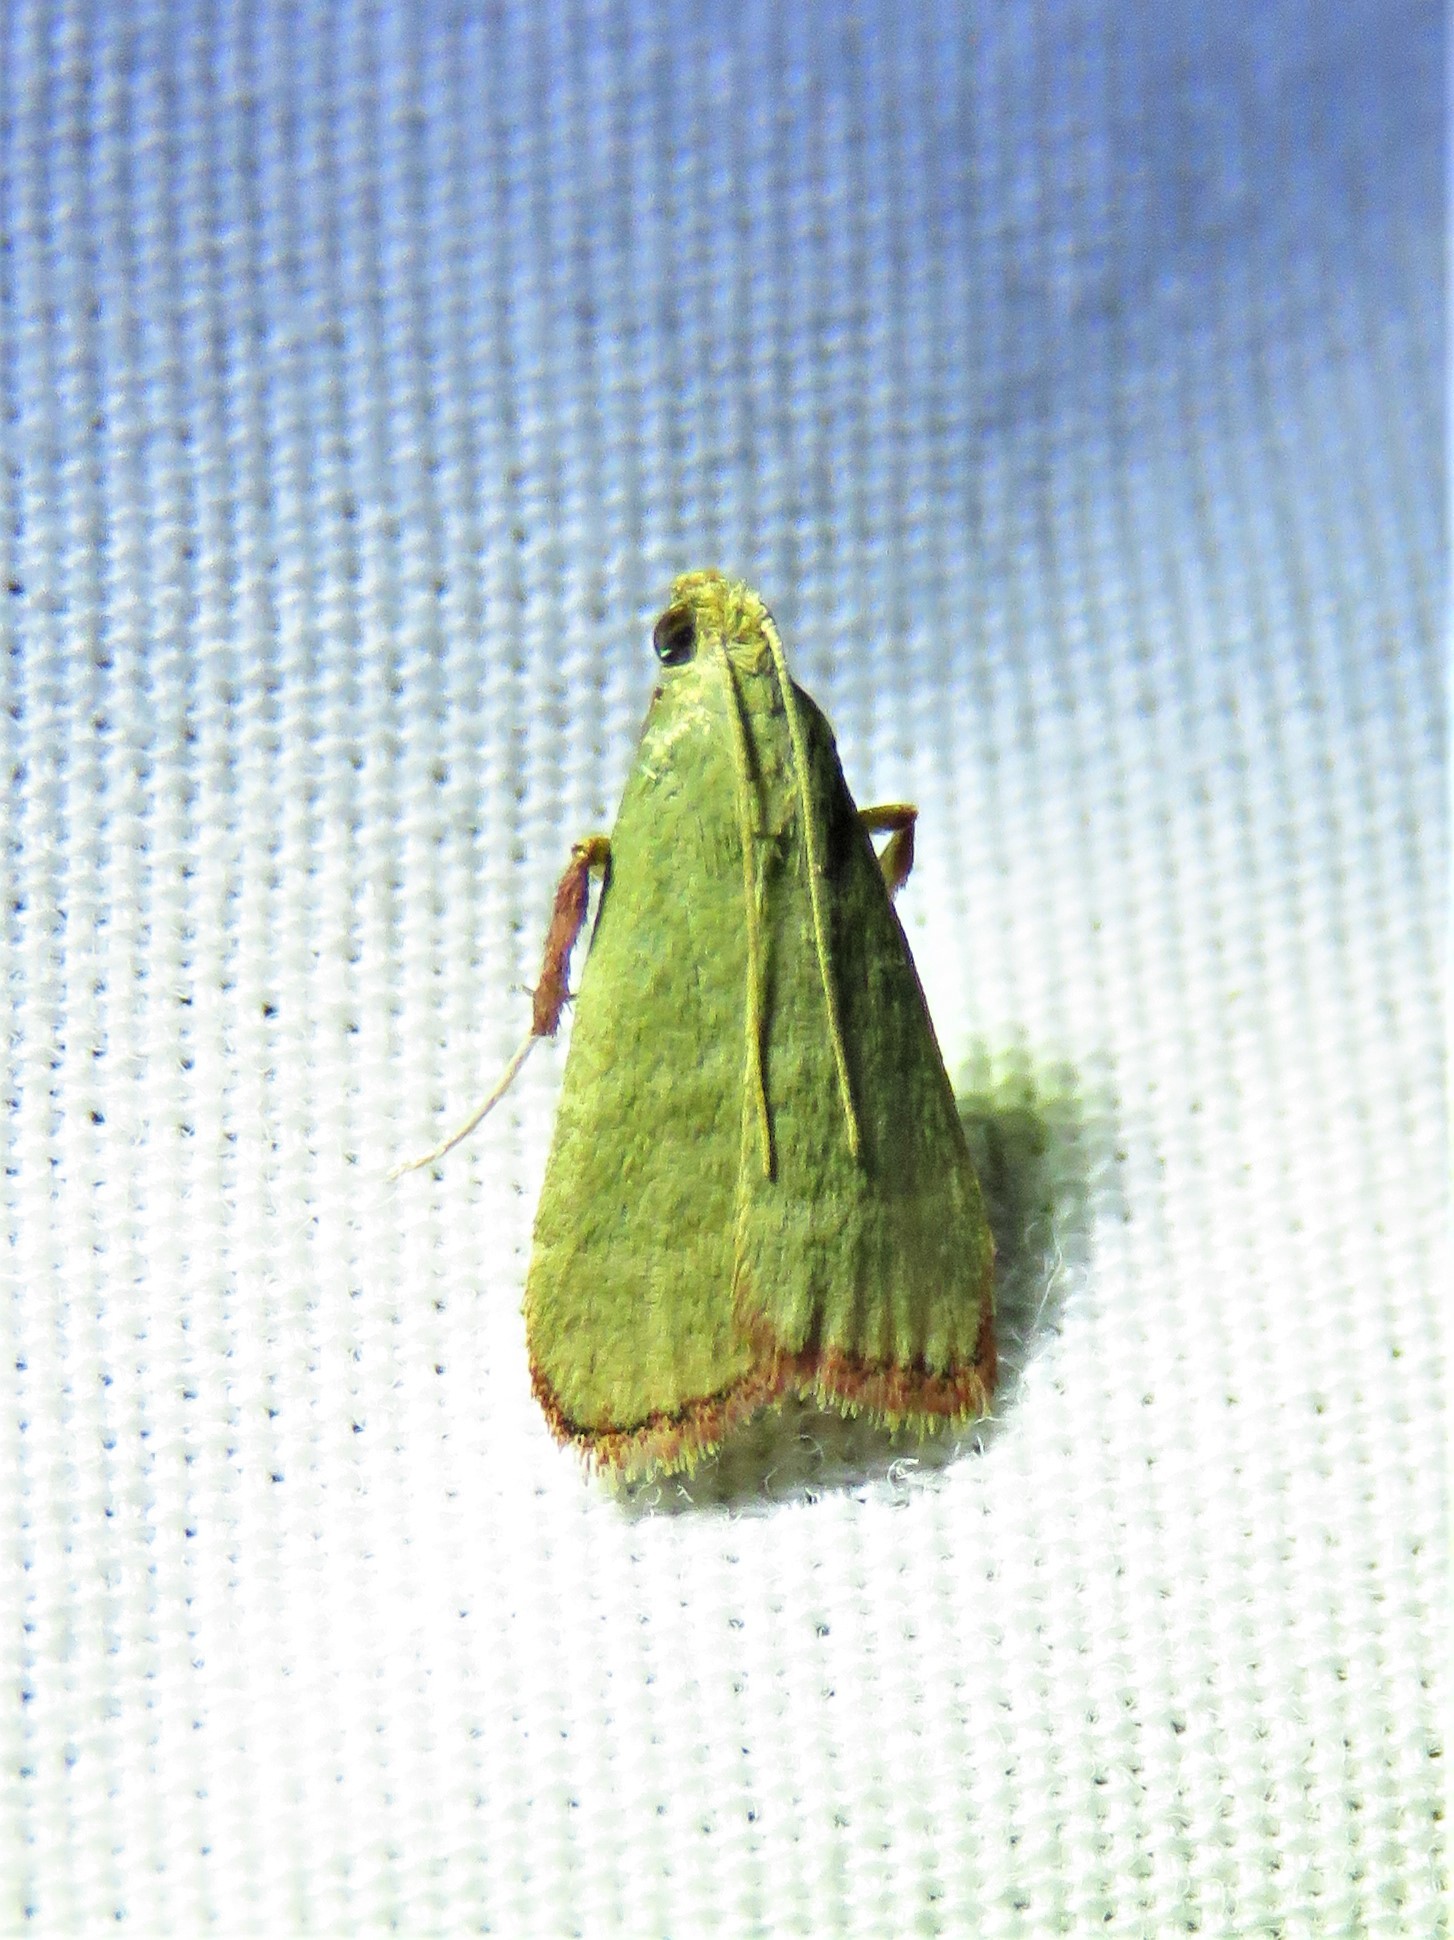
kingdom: Animalia
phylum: Arthropoda
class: Insecta
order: Lepidoptera
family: Pyralidae
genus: Arta
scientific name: Arta olivalis
